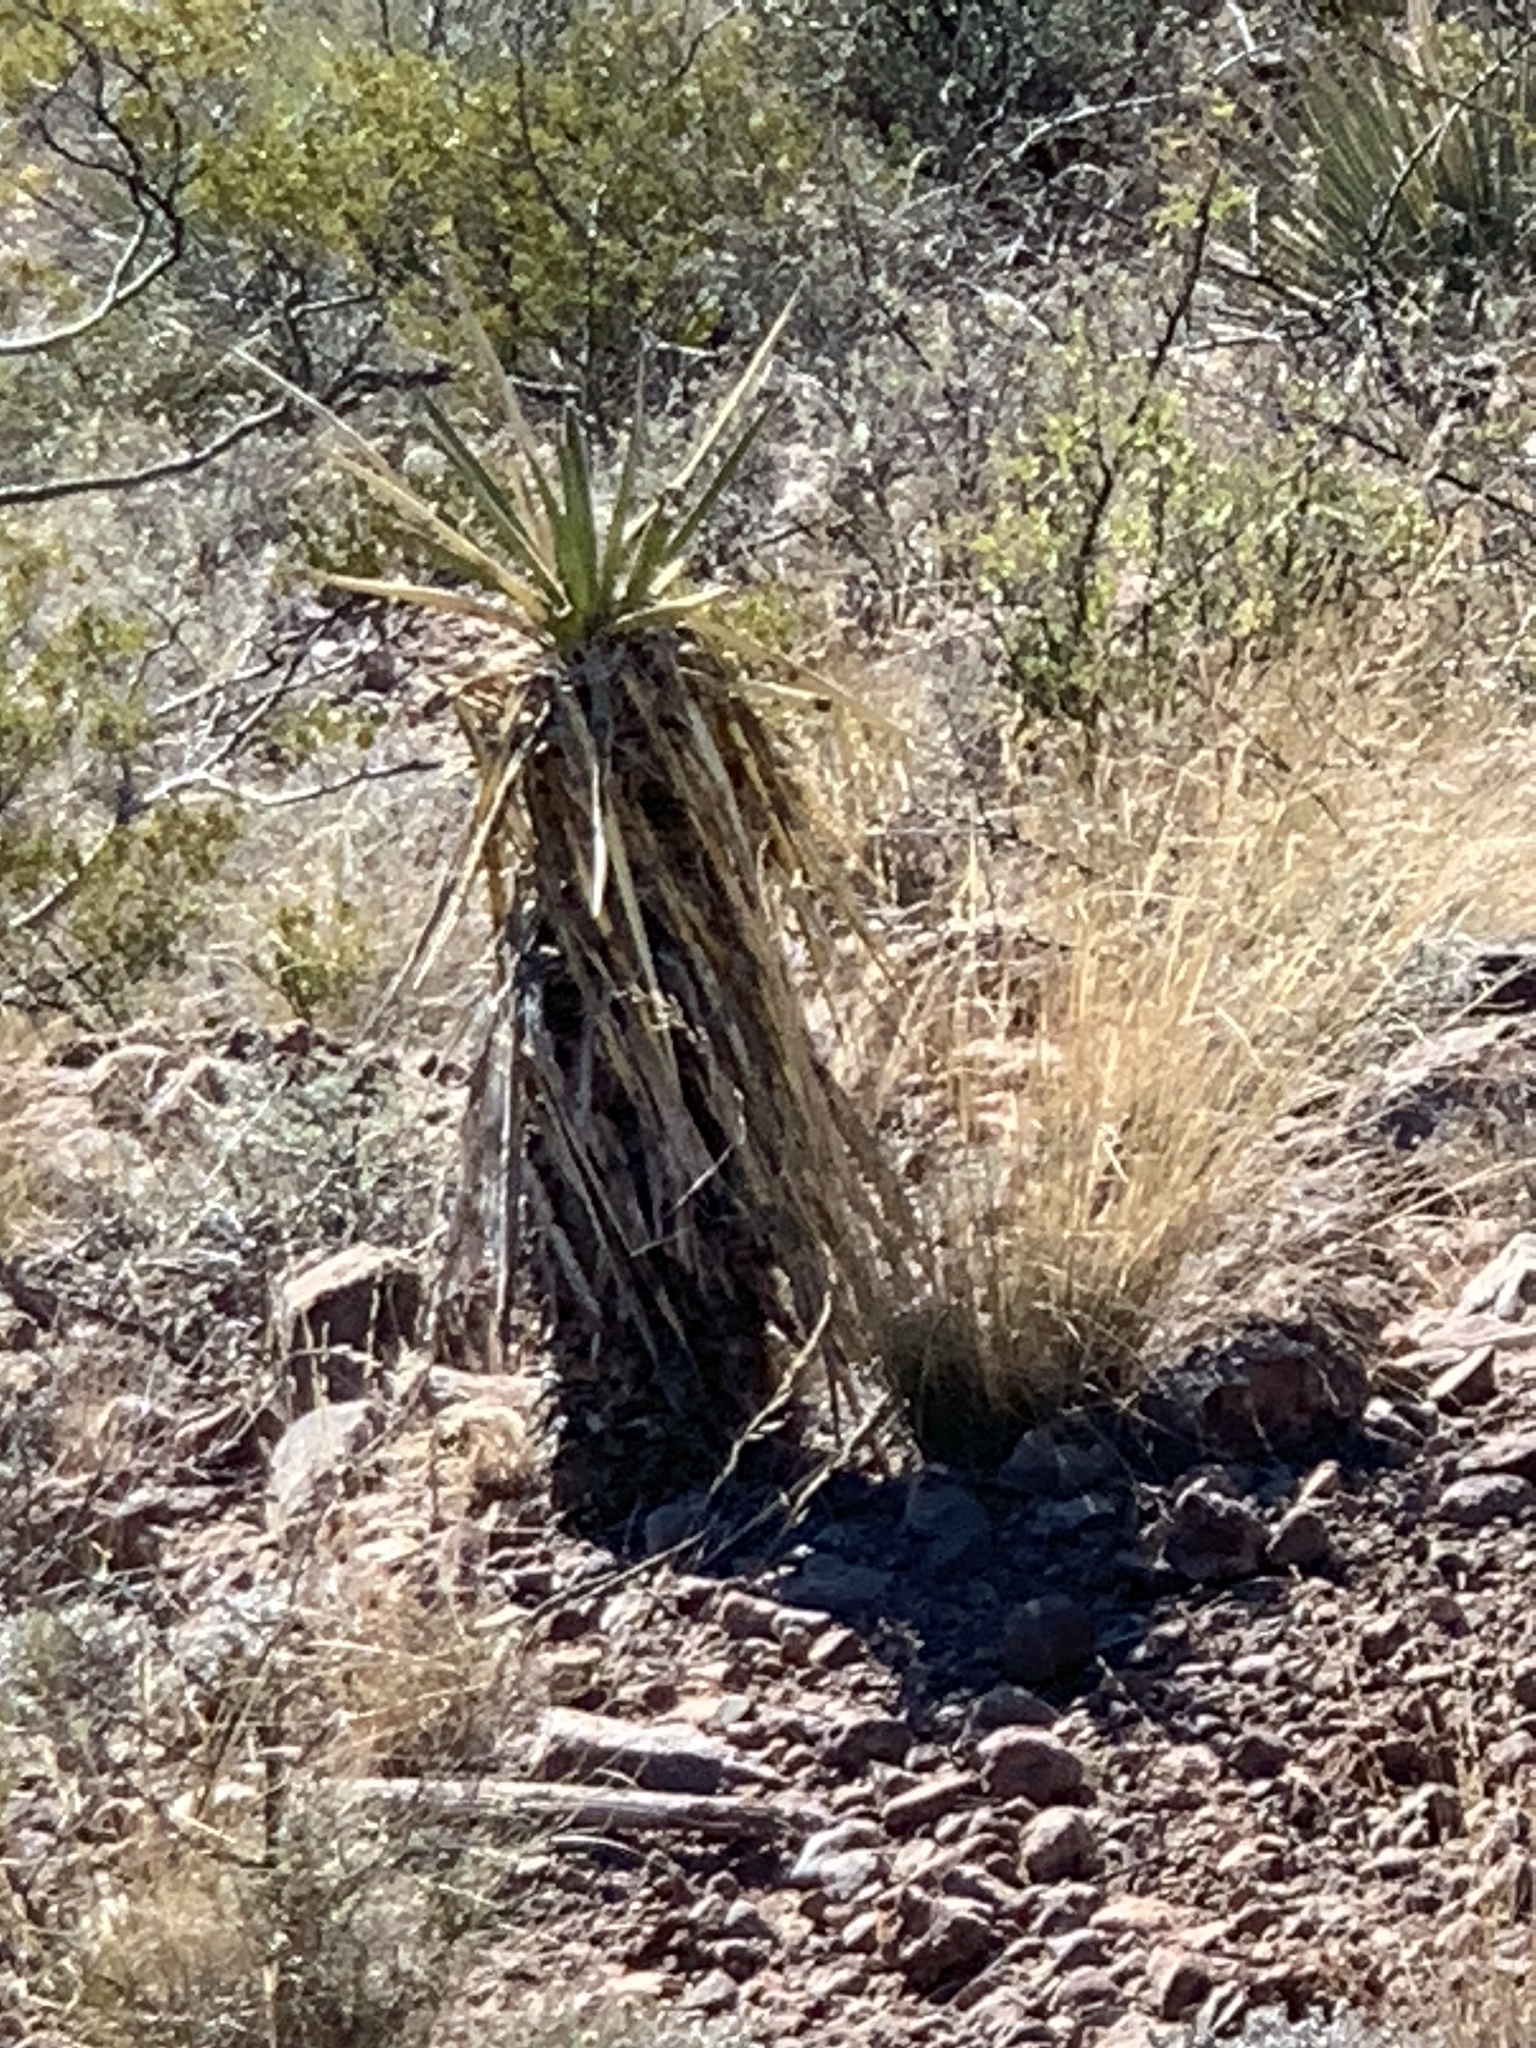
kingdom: Plantae
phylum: Tracheophyta
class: Liliopsida
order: Asparagales
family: Asparagaceae
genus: Yucca
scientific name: Yucca treculiana
